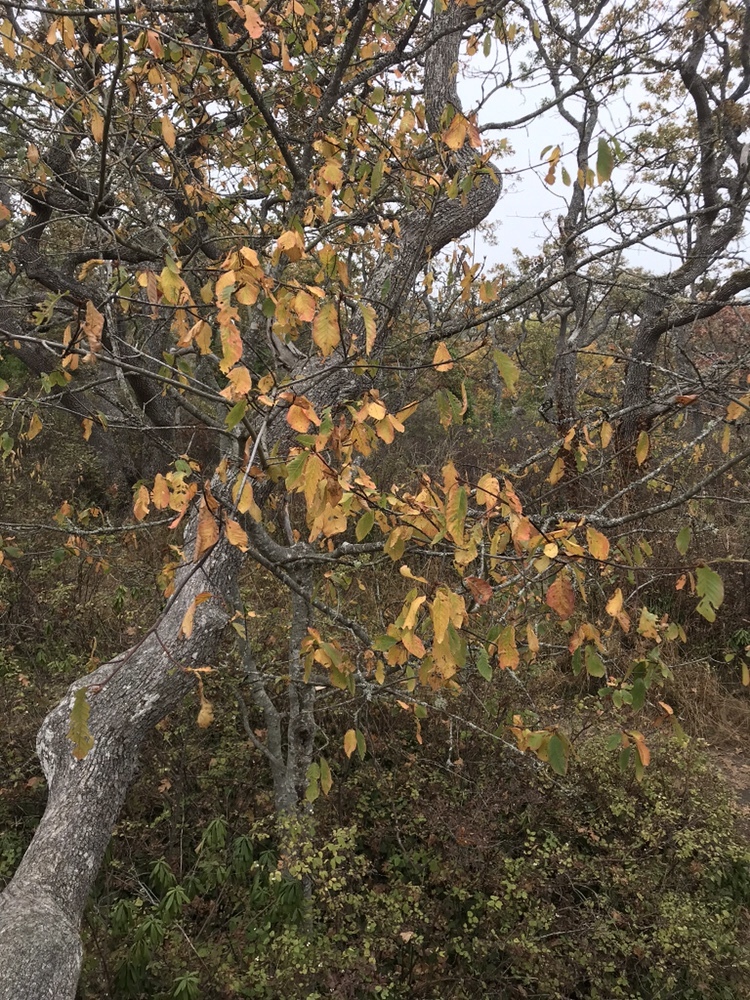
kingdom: Plantae
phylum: Tracheophyta
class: Magnoliopsida
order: Rosales
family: Rhamnaceae
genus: Frangula
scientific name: Frangula purshiana
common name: Cascara buckthorn
